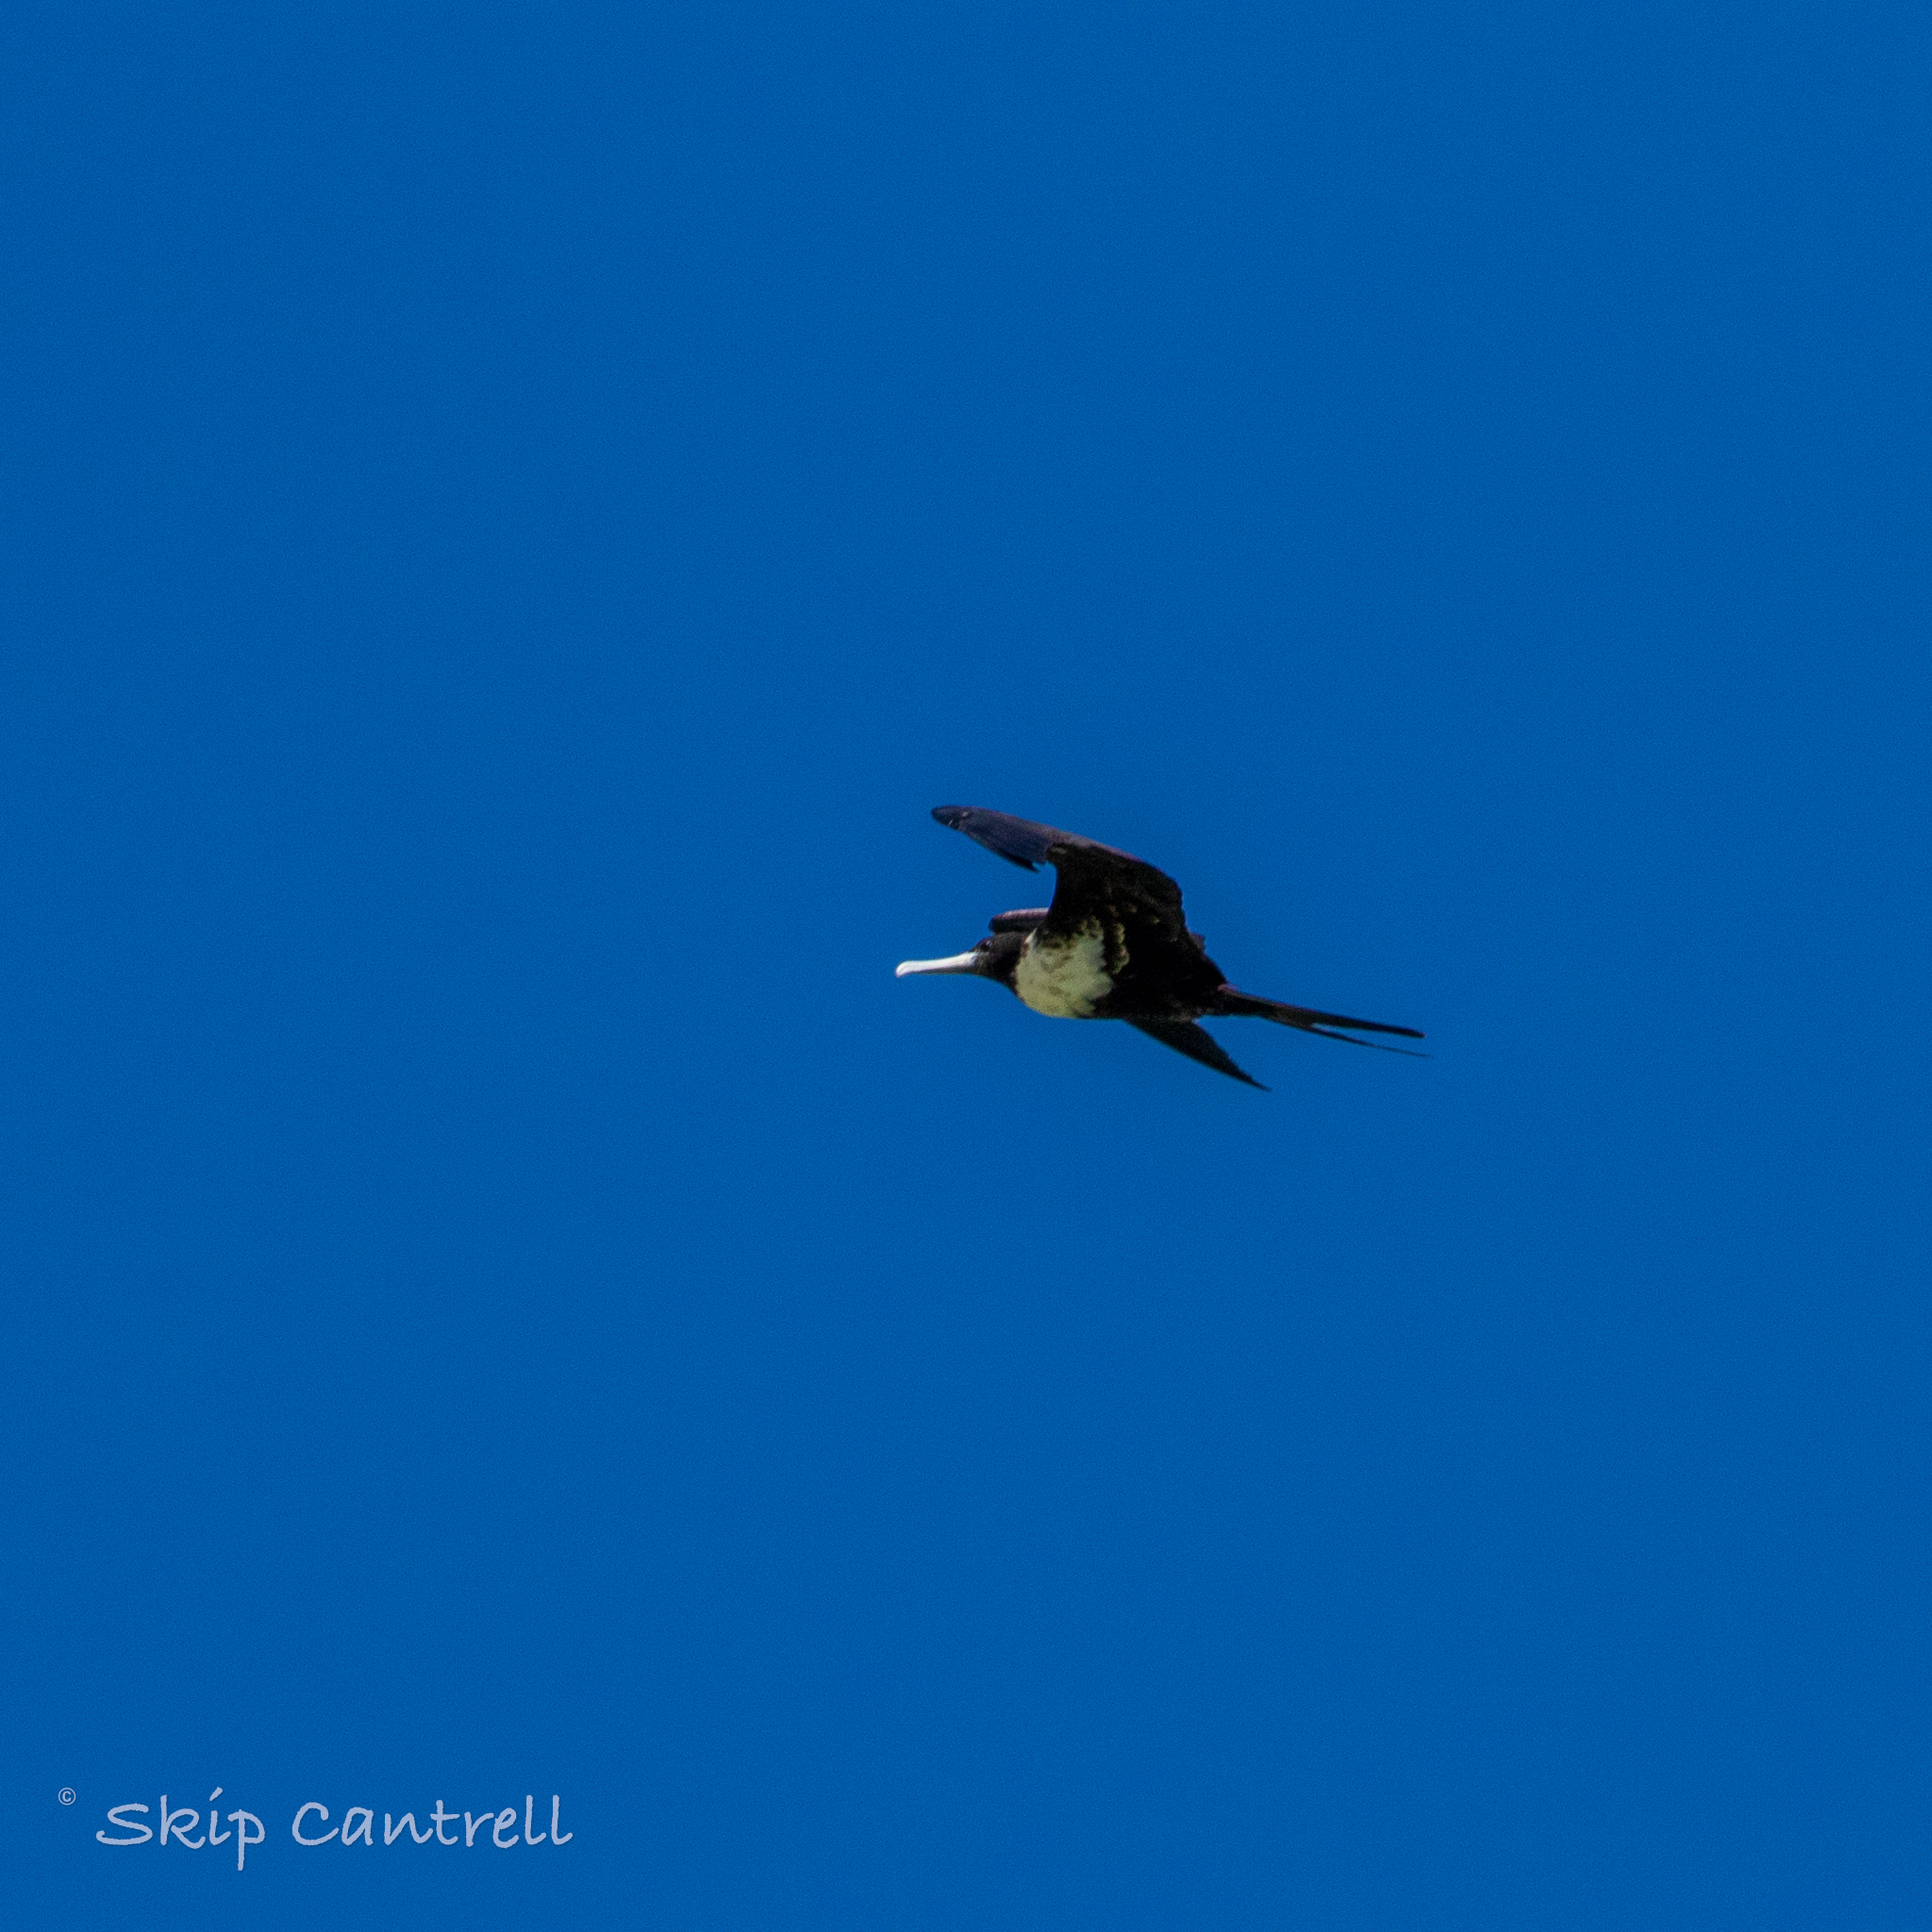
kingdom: Animalia
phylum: Chordata
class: Aves
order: Suliformes
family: Fregatidae
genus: Fregata
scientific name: Fregata magnificens
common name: Magnificent frigatebird
